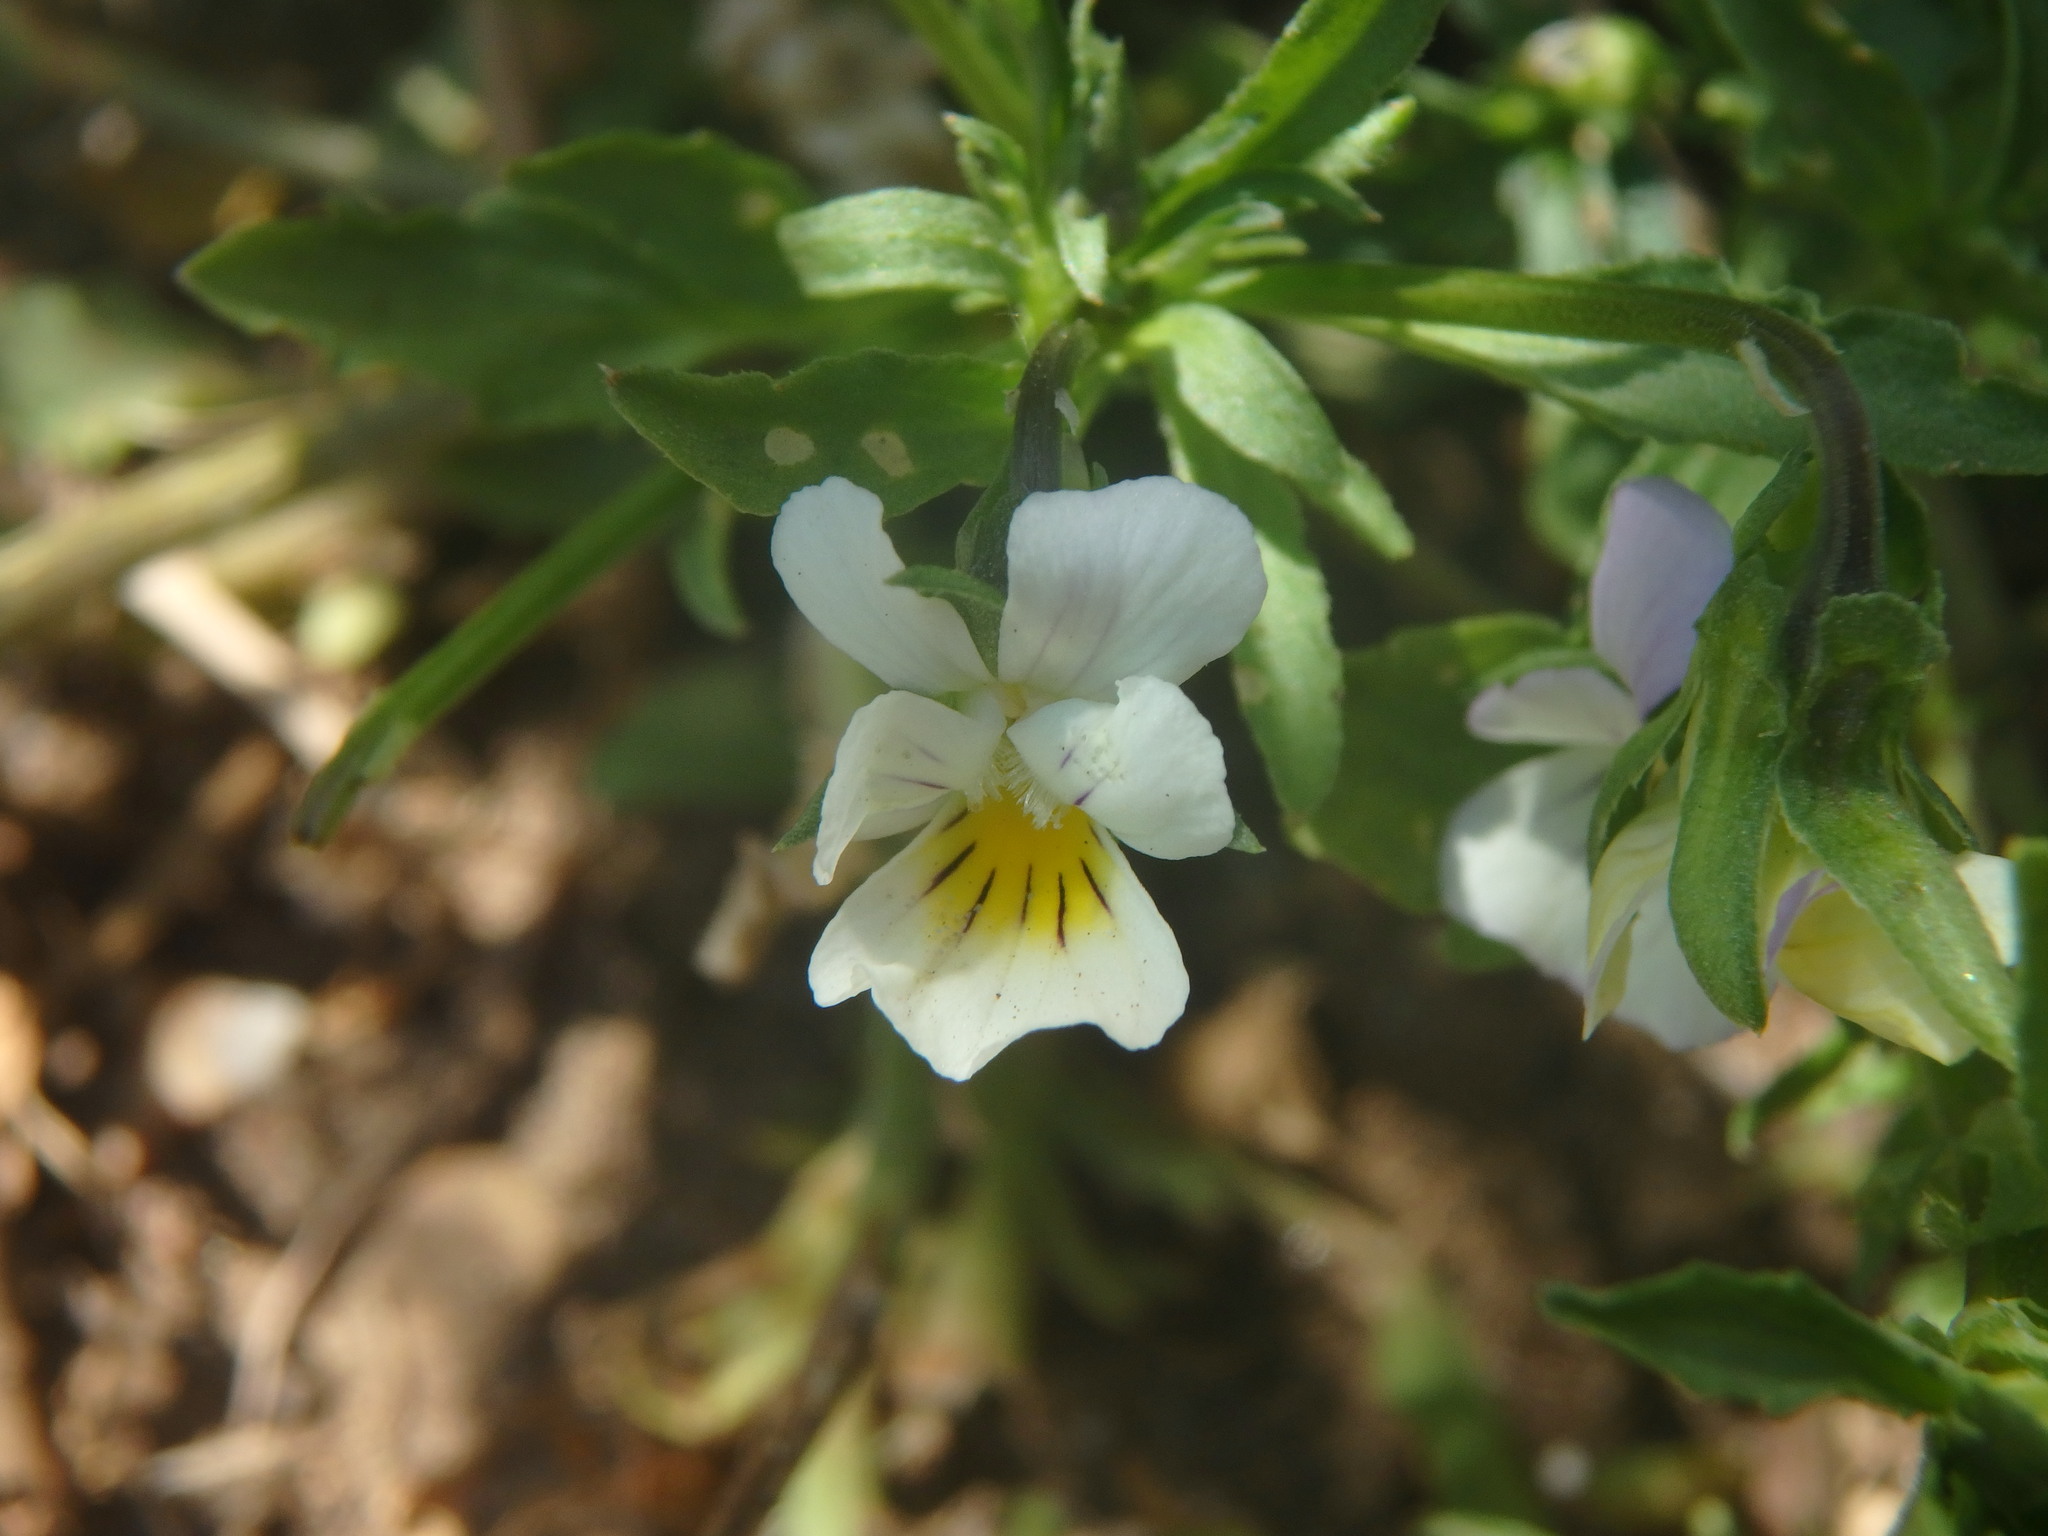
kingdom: Plantae
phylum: Tracheophyta
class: Magnoliopsida
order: Malpighiales
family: Violaceae
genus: Viola
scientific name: Viola arvensis
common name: Field pansy
